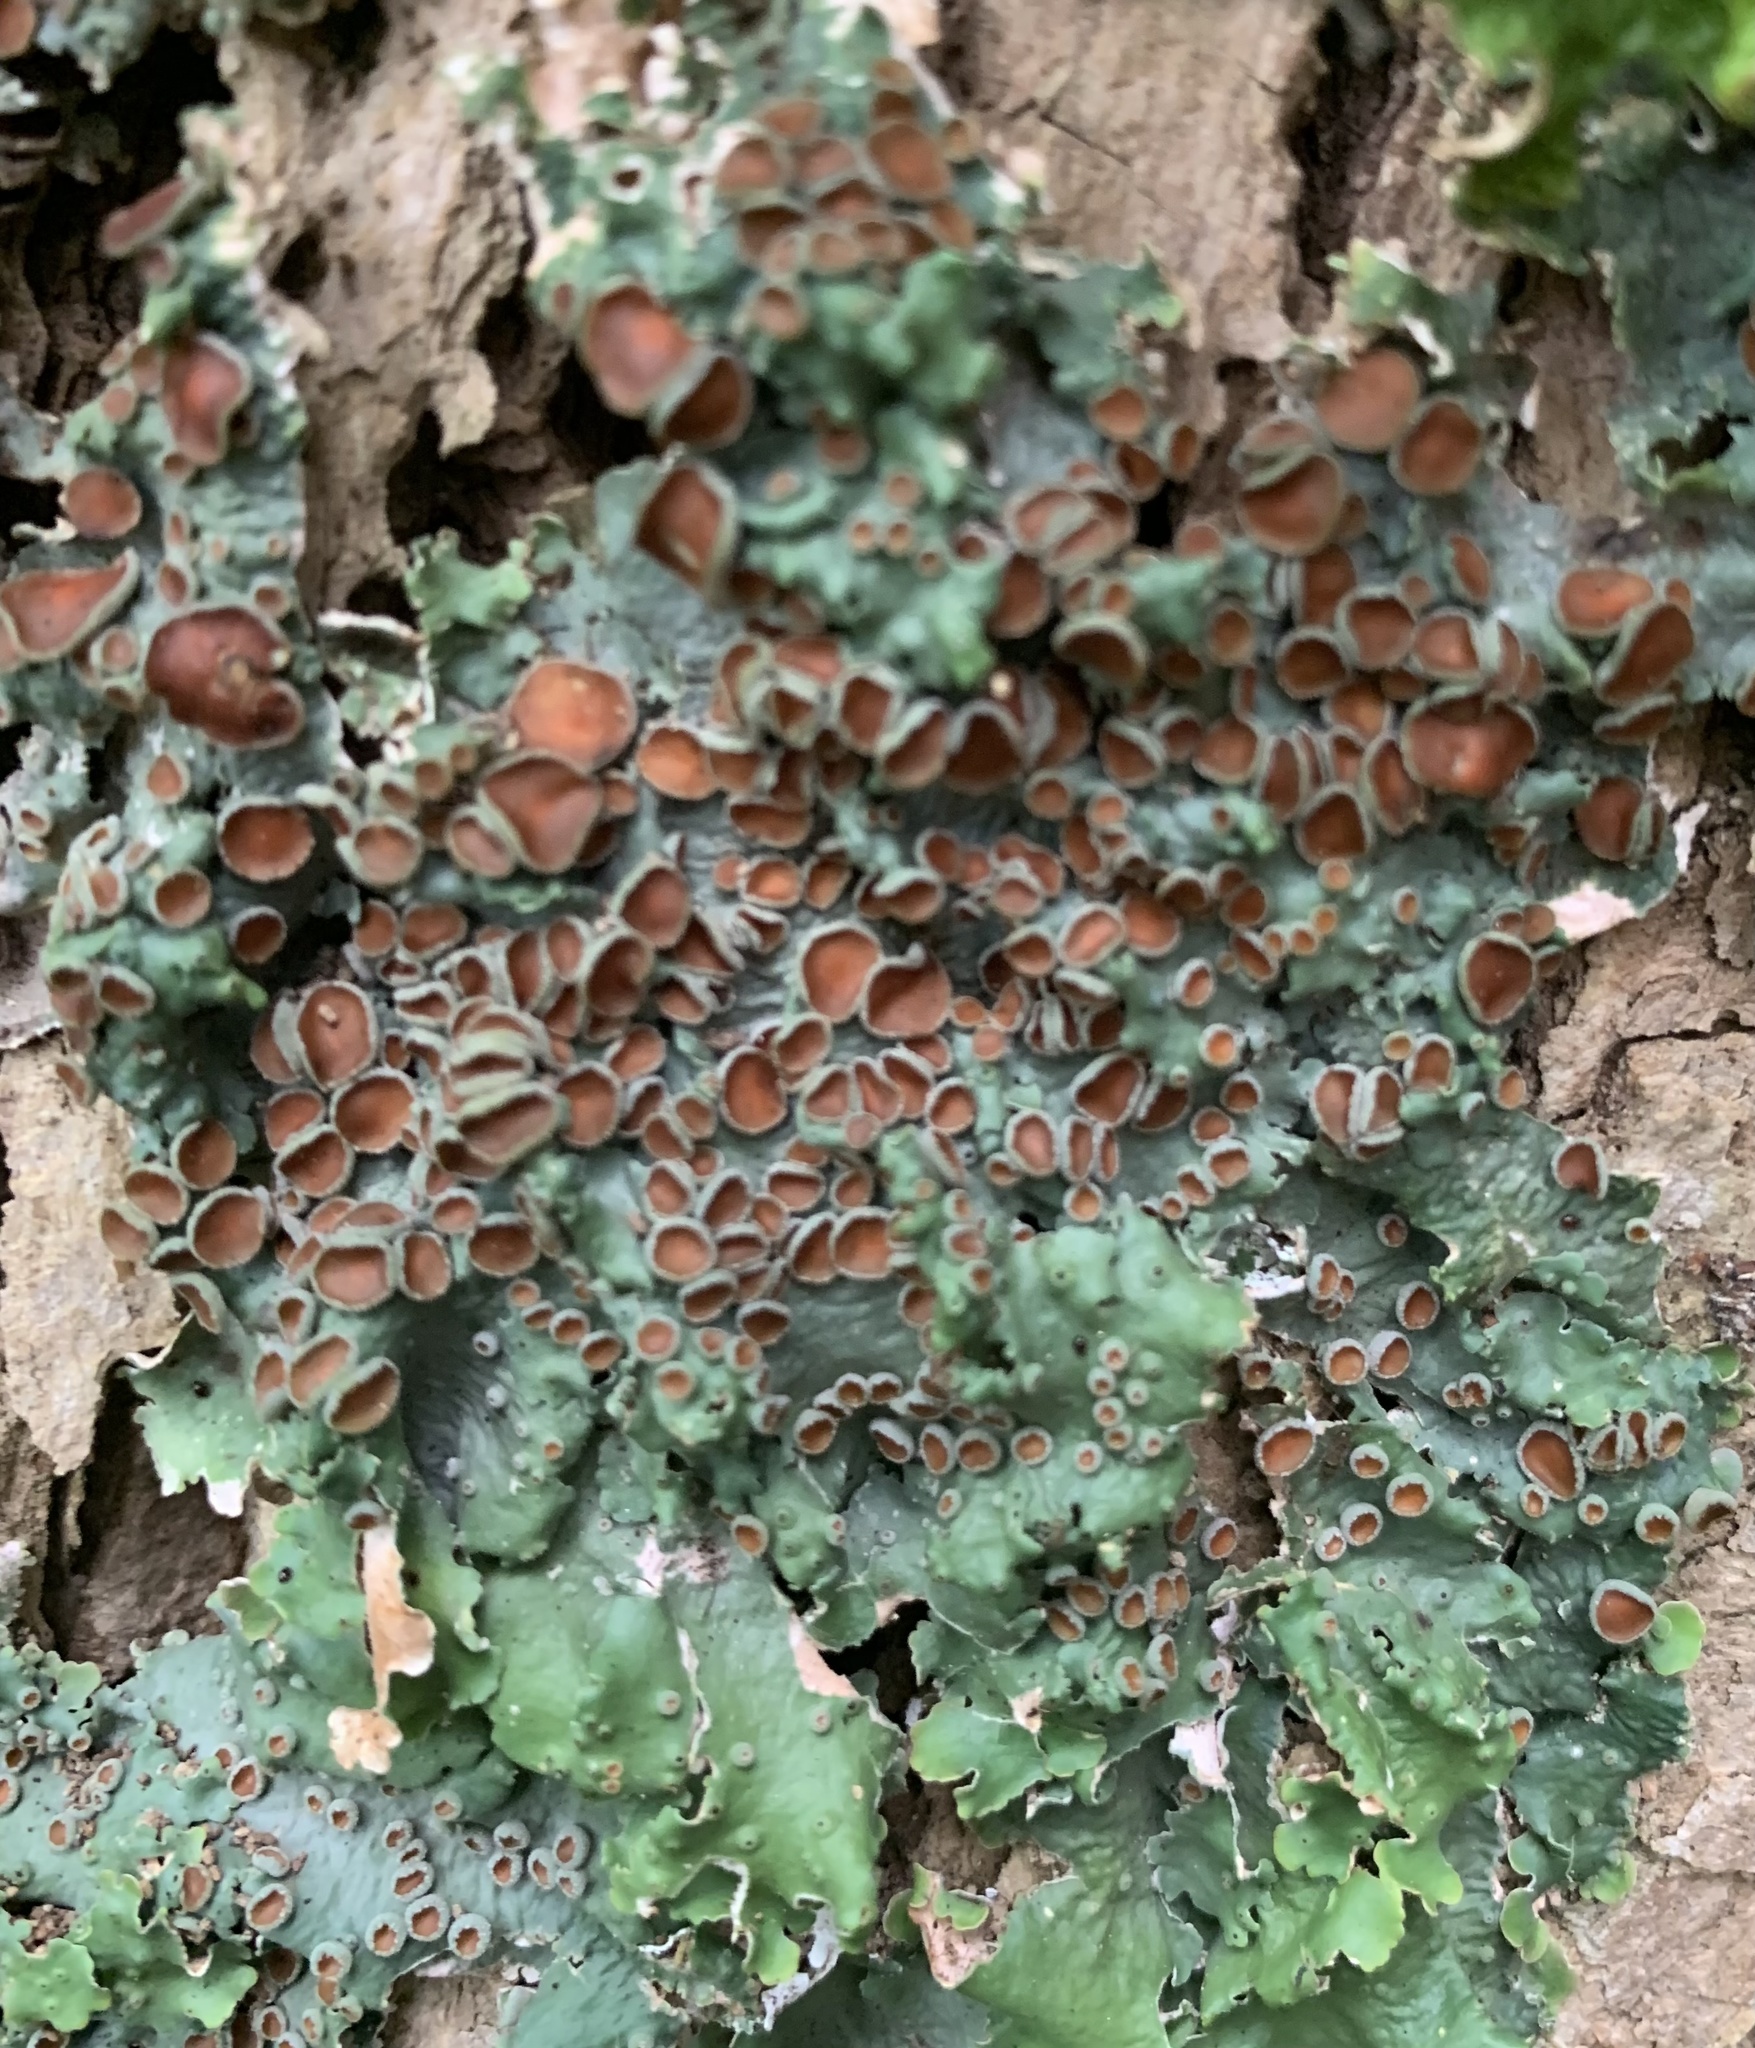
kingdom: Fungi
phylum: Ascomycota
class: Lecanoromycetes
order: Peltigerales
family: Lobariaceae
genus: Ricasolia
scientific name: Ricasolia quercizans
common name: Smooth lungwort
